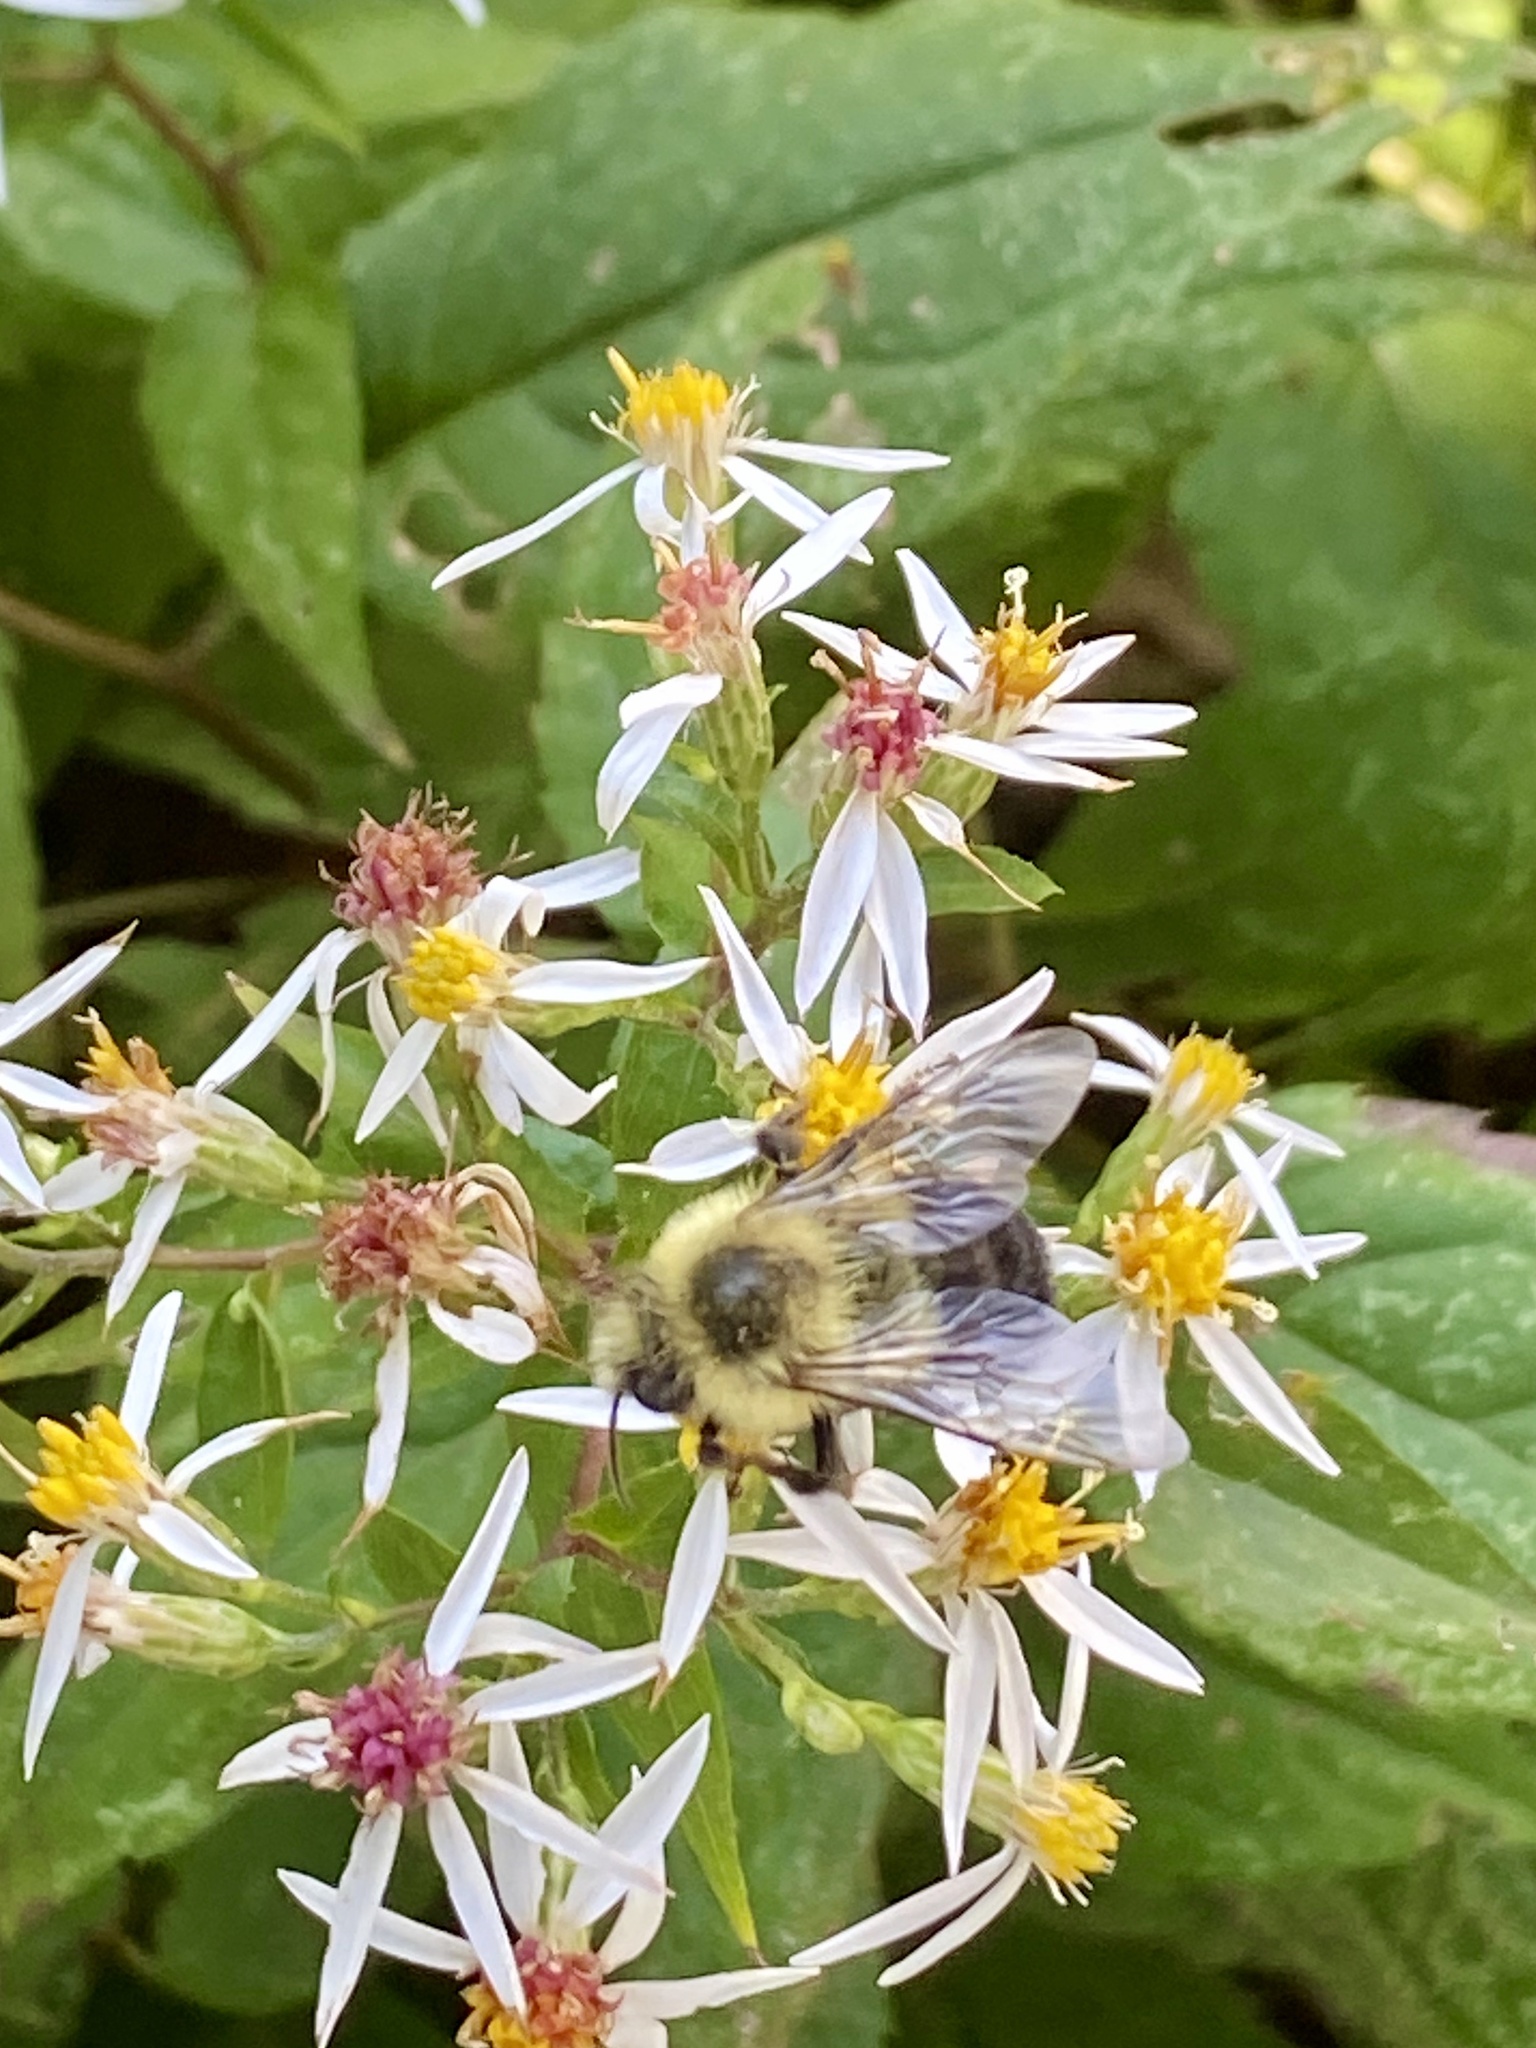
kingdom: Animalia
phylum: Arthropoda
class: Insecta
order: Hymenoptera
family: Apidae
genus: Bombus
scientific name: Bombus impatiens
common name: Common eastern bumble bee
